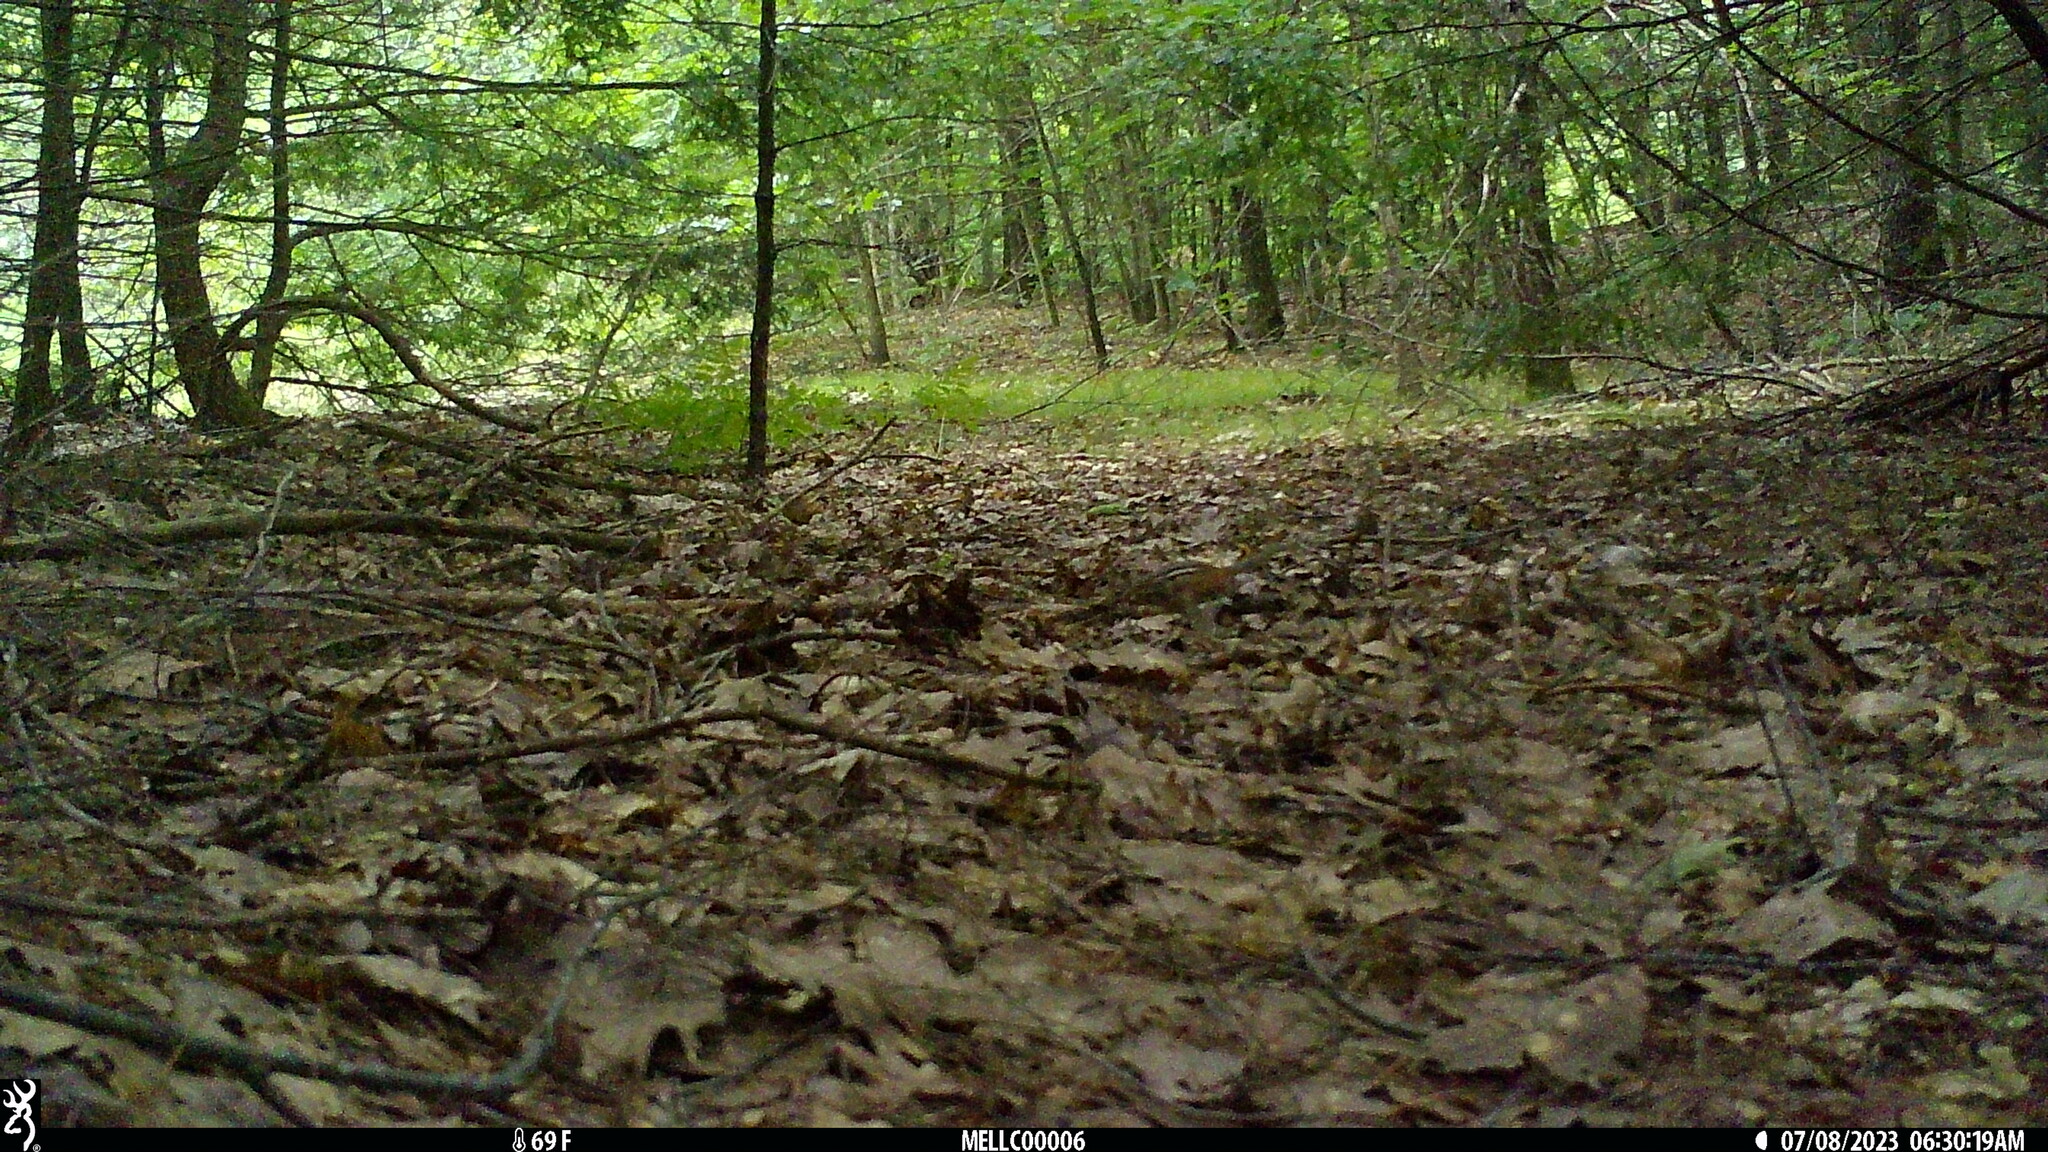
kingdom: Animalia
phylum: Chordata
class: Mammalia
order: Rodentia
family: Sciuridae
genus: Tamias
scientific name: Tamias striatus
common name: Eastern chipmunk
